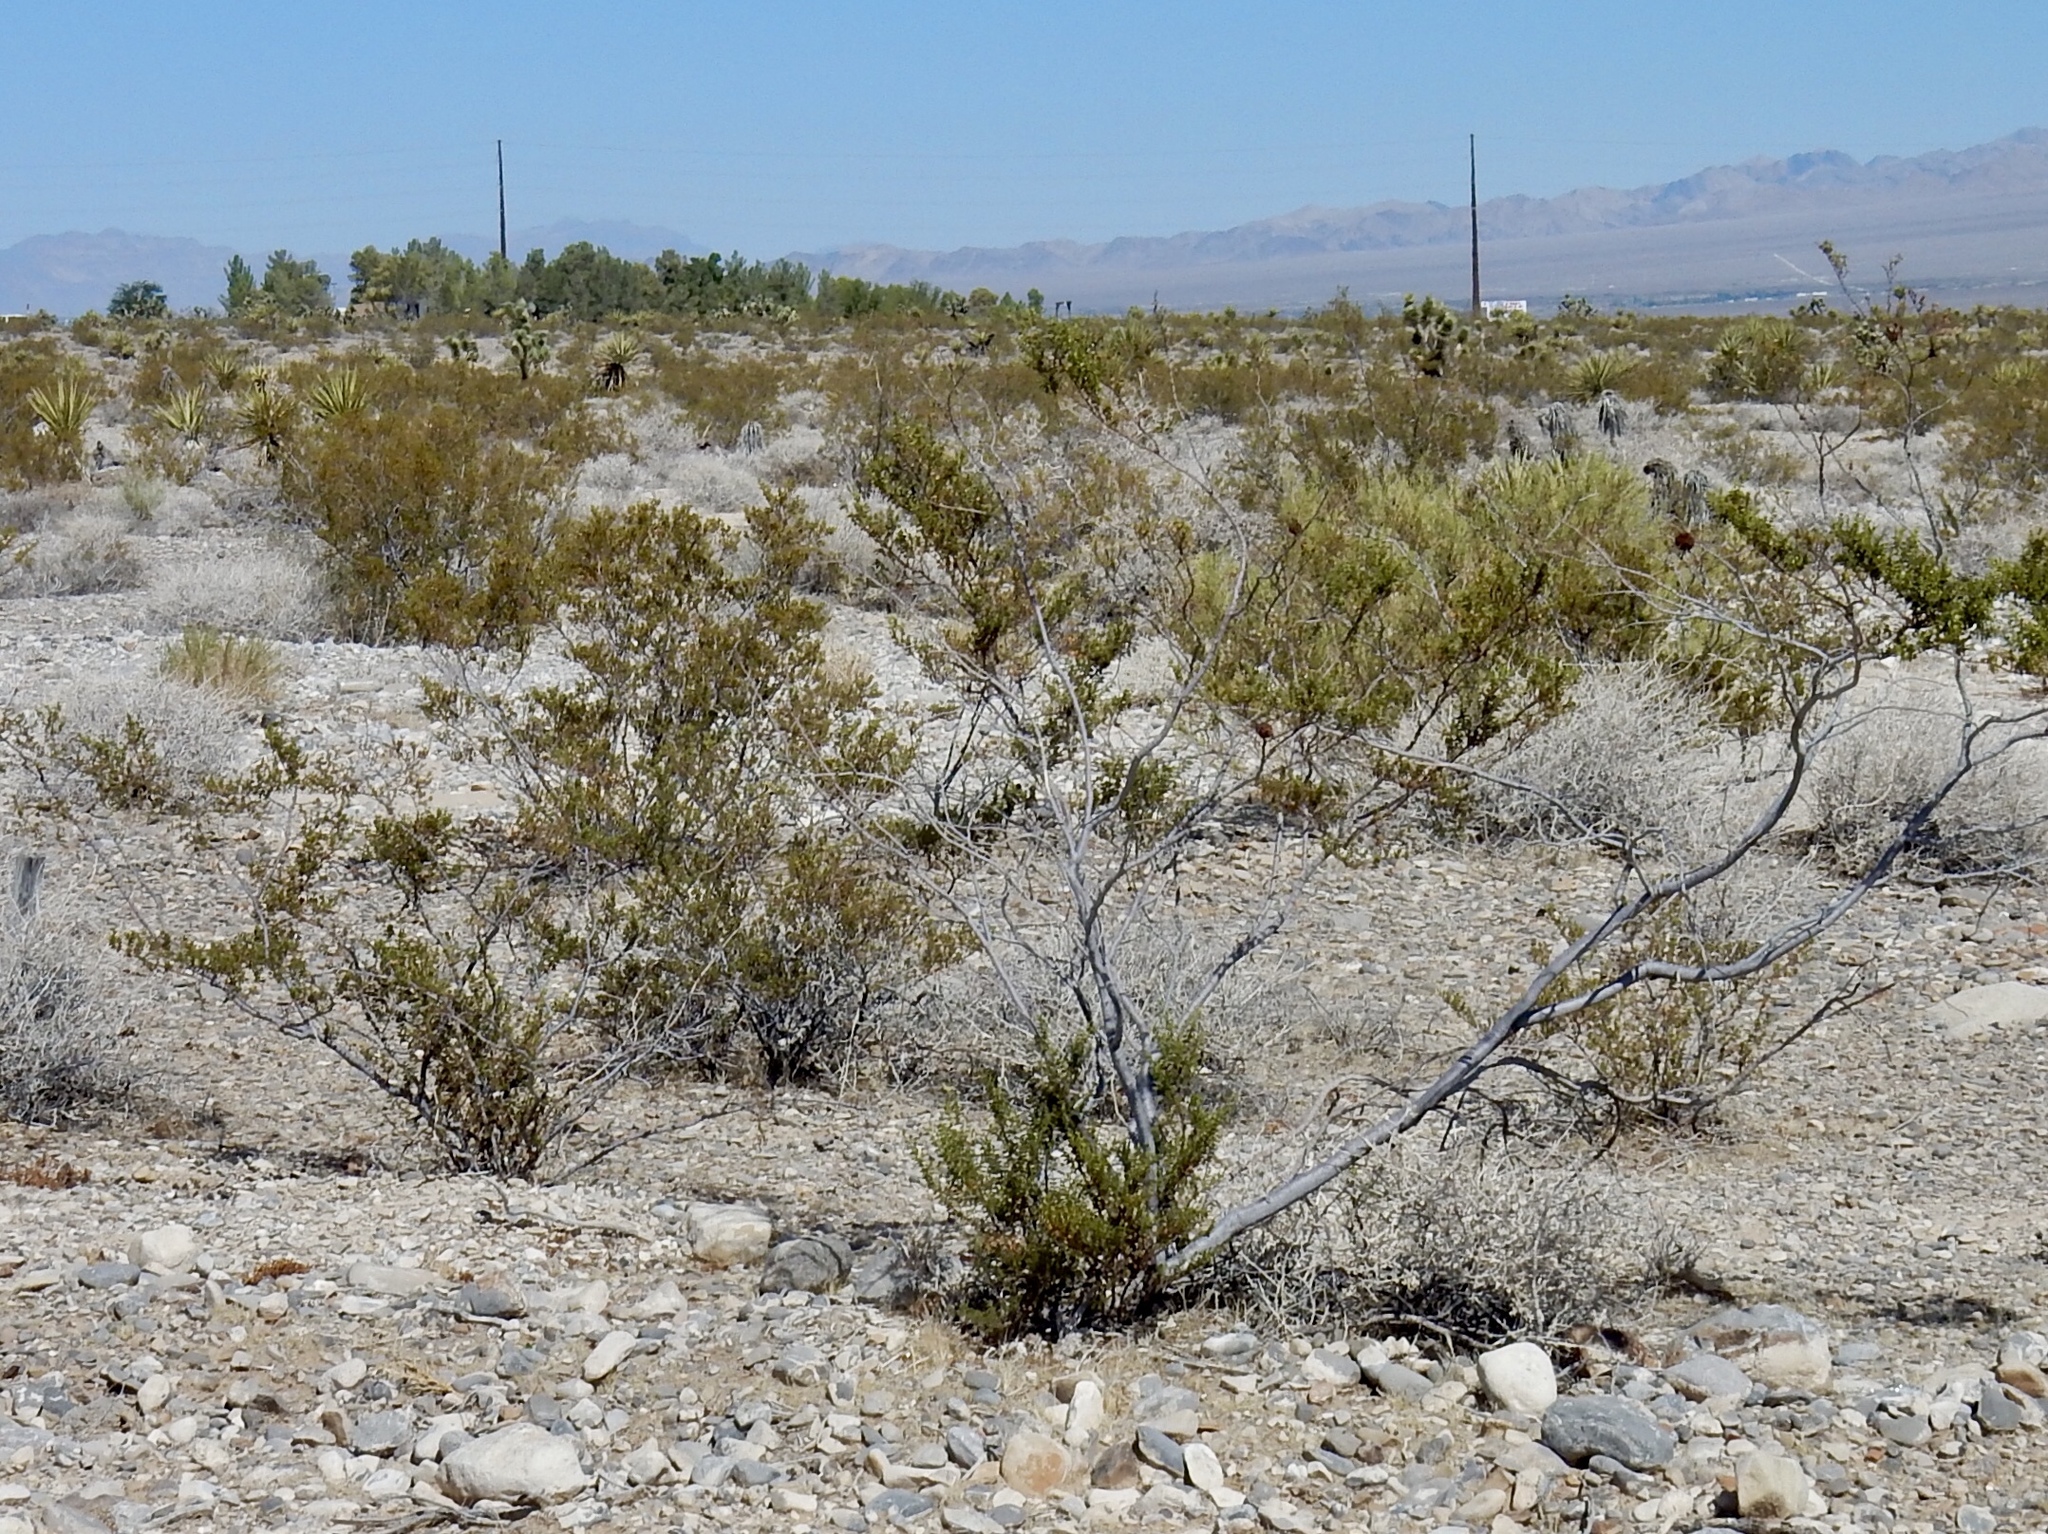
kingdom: Plantae
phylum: Tracheophyta
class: Magnoliopsida
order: Zygophyllales
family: Zygophyllaceae
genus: Larrea
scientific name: Larrea tridentata
